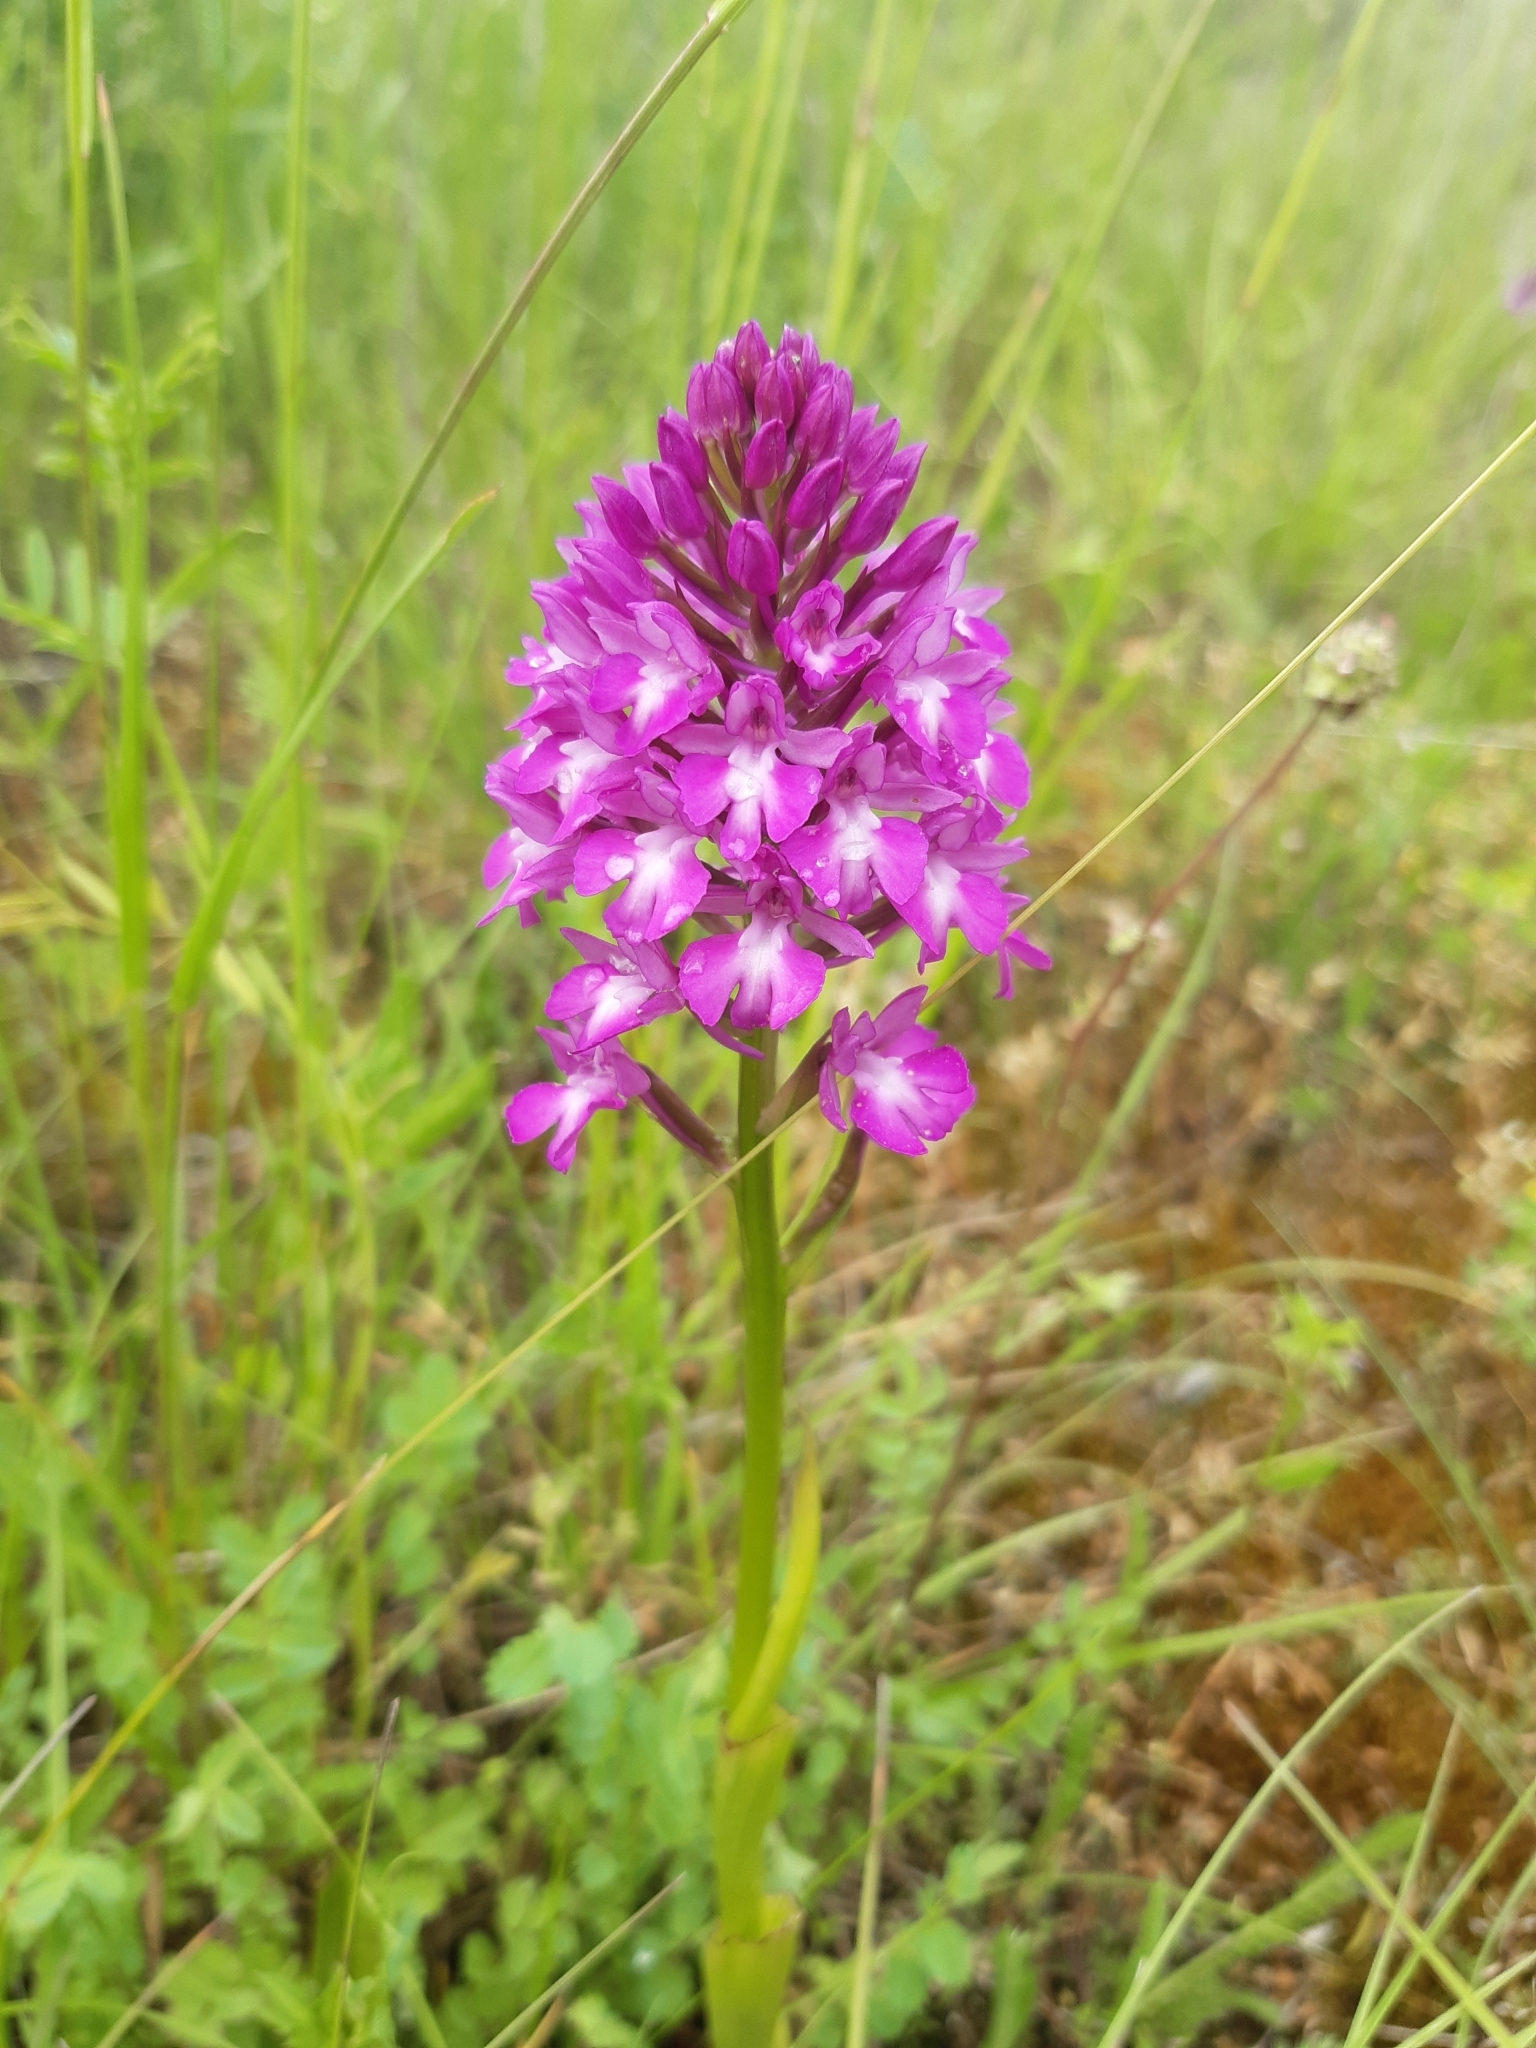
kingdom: Plantae
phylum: Tracheophyta
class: Liliopsida
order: Asparagales
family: Orchidaceae
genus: Anacamptis
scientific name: Anacamptis pyramidalis
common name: Pyramidal orchid
